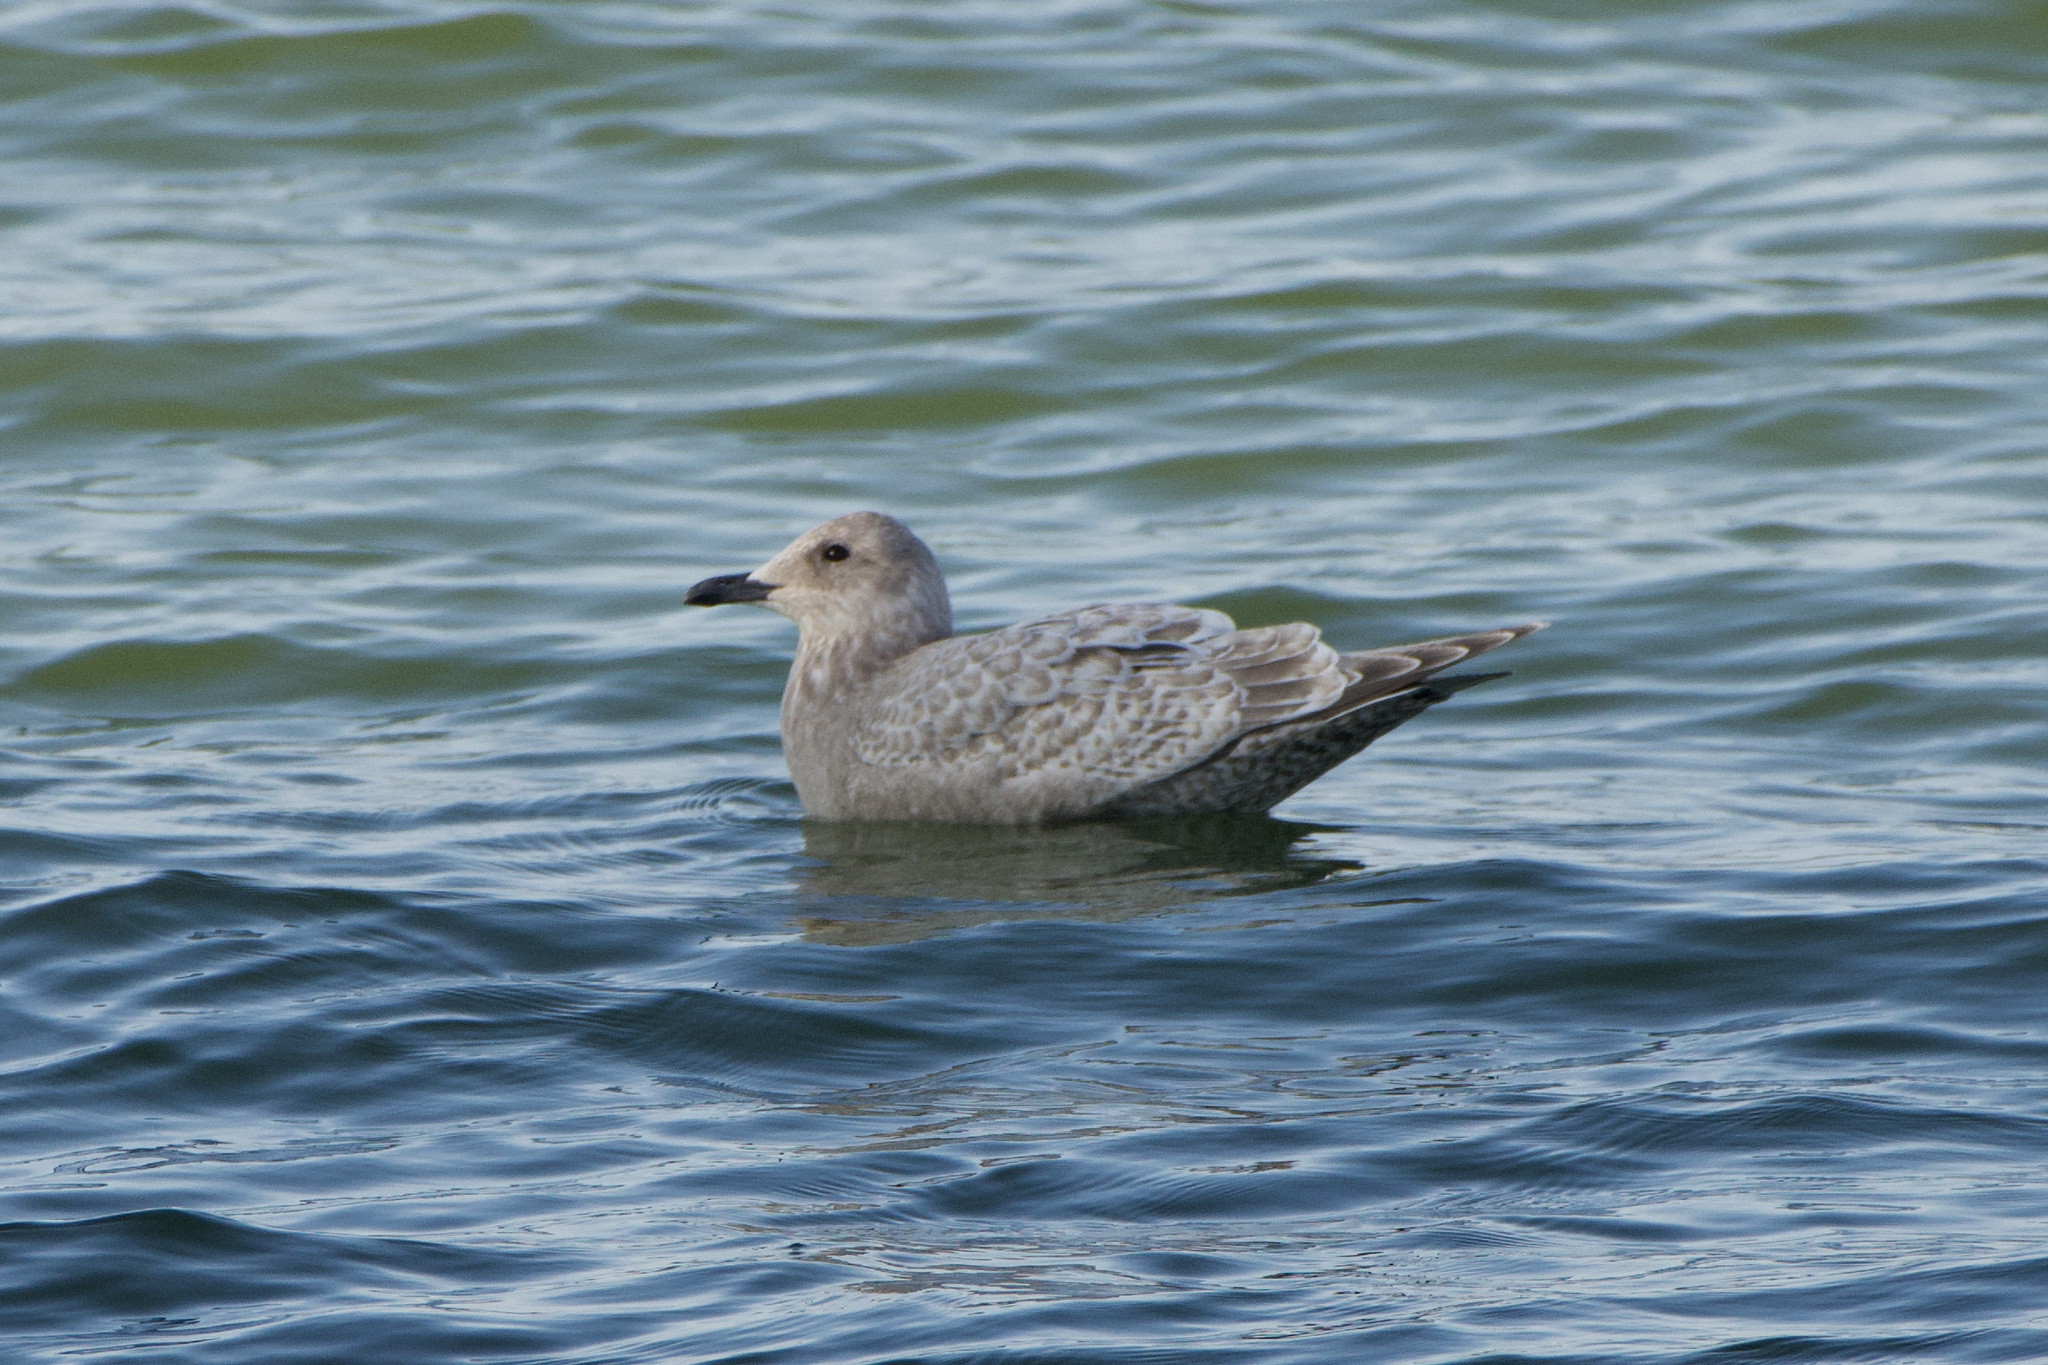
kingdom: Animalia
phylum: Chordata
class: Aves
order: Charadriiformes
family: Laridae
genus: Larus
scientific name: Larus glaucoides
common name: Iceland gull
